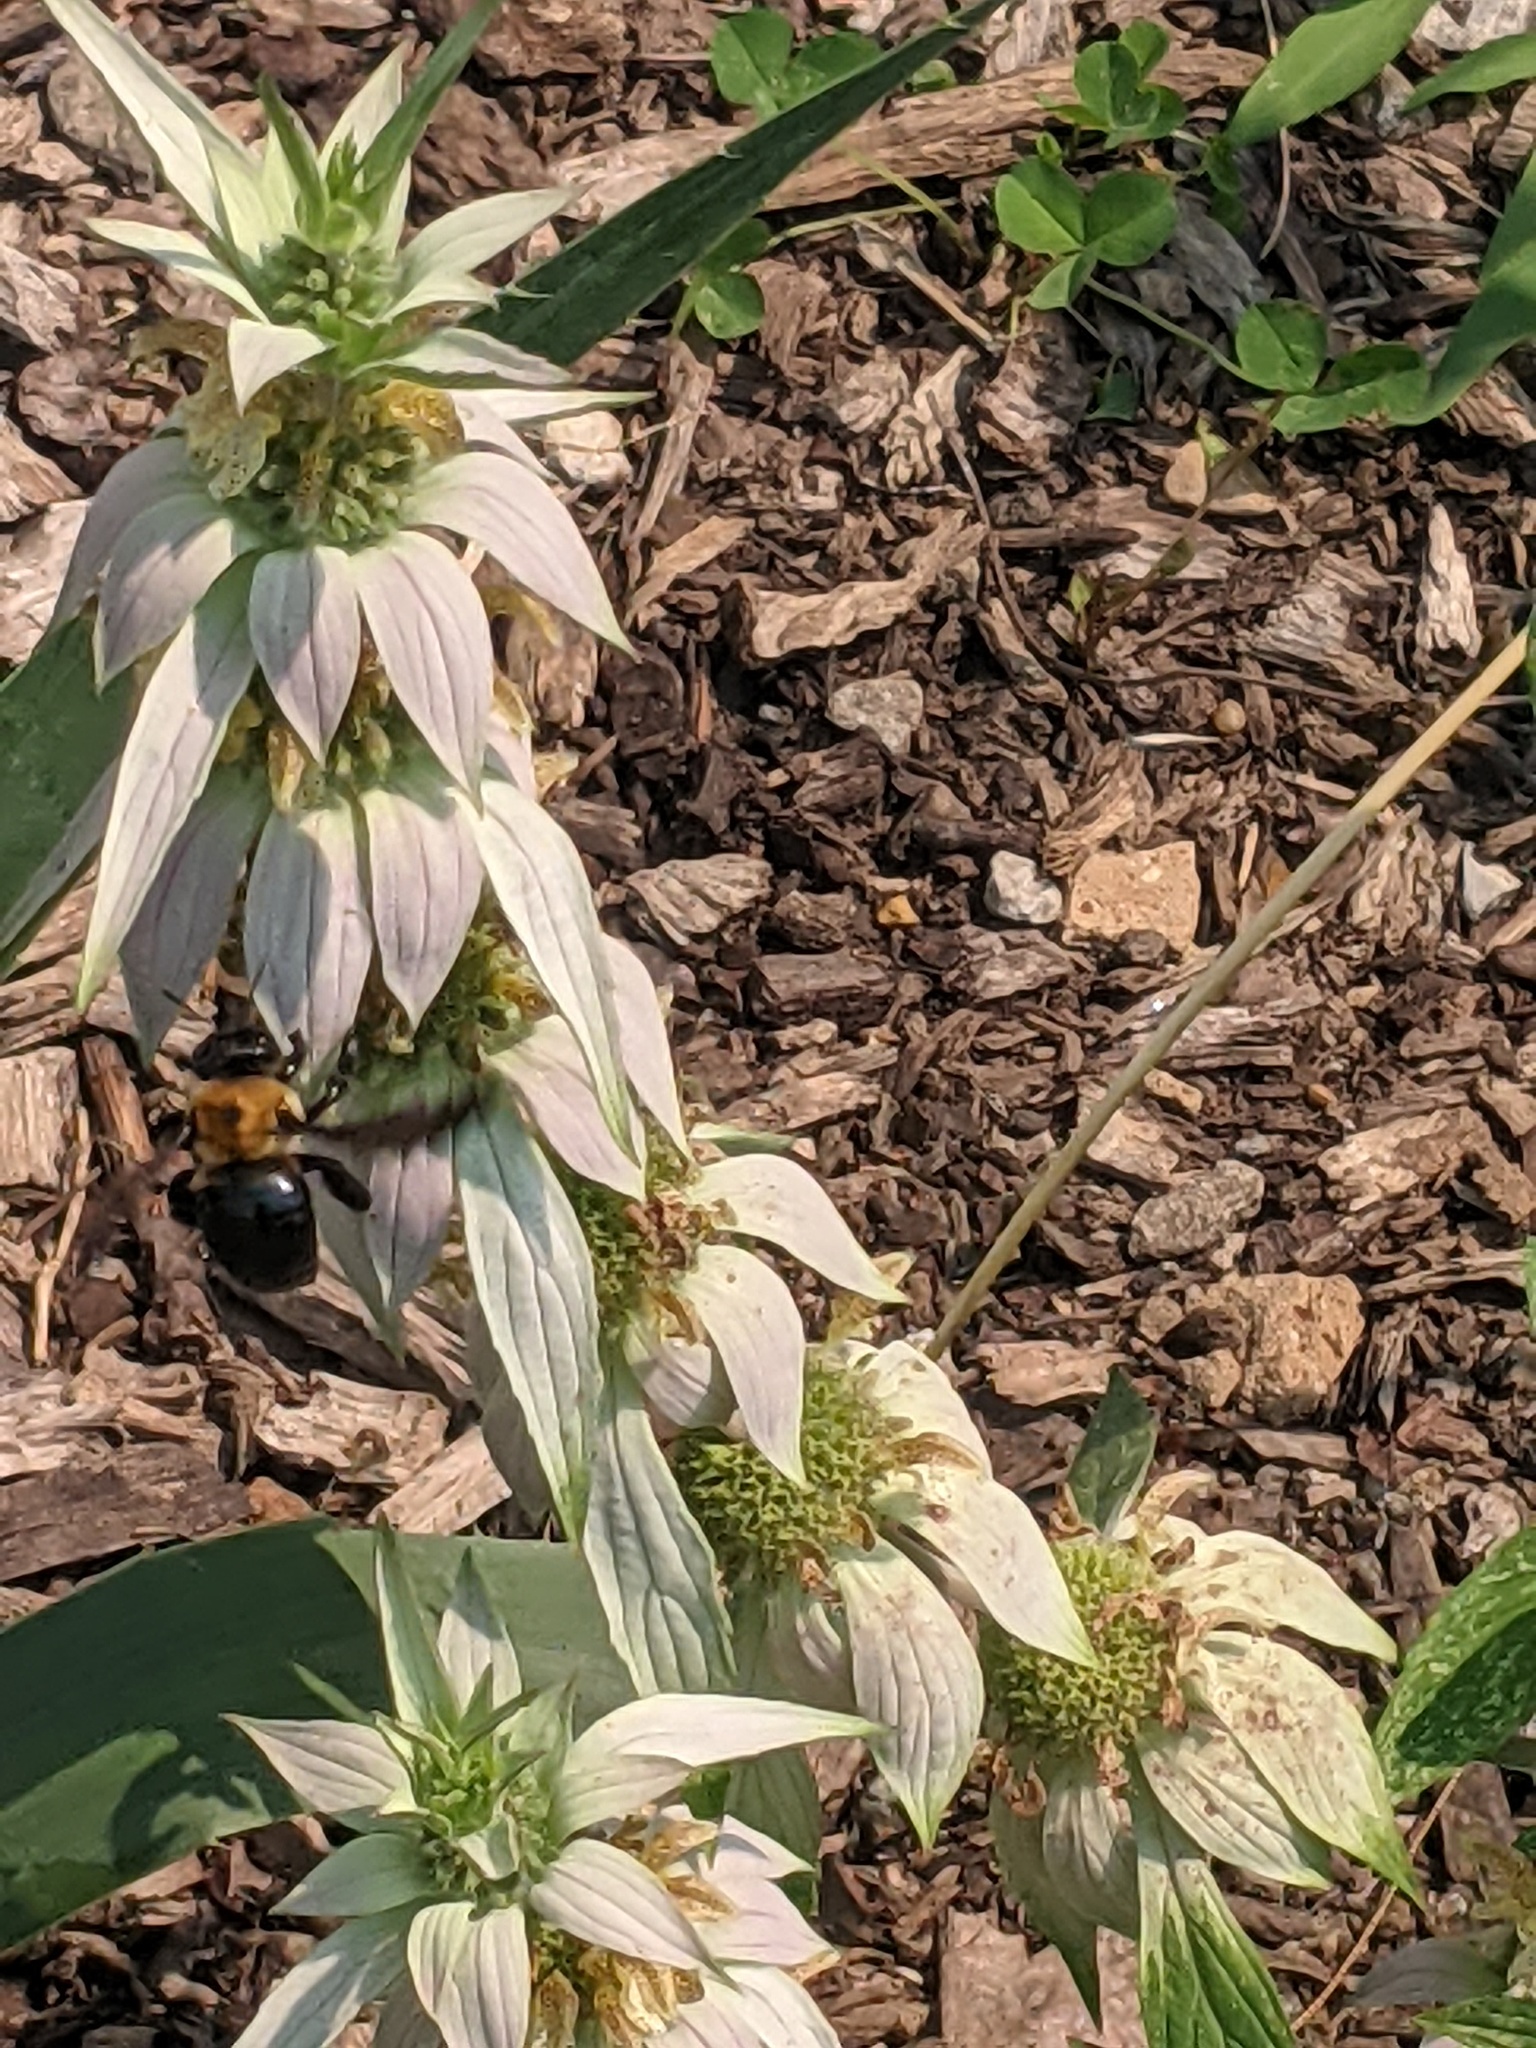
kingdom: Animalia
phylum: Arthropoda
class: Insecta
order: Hymenoptera
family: Apidae
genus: Xylocopa
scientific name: Xylocopa virginica
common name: Carpenter bee
